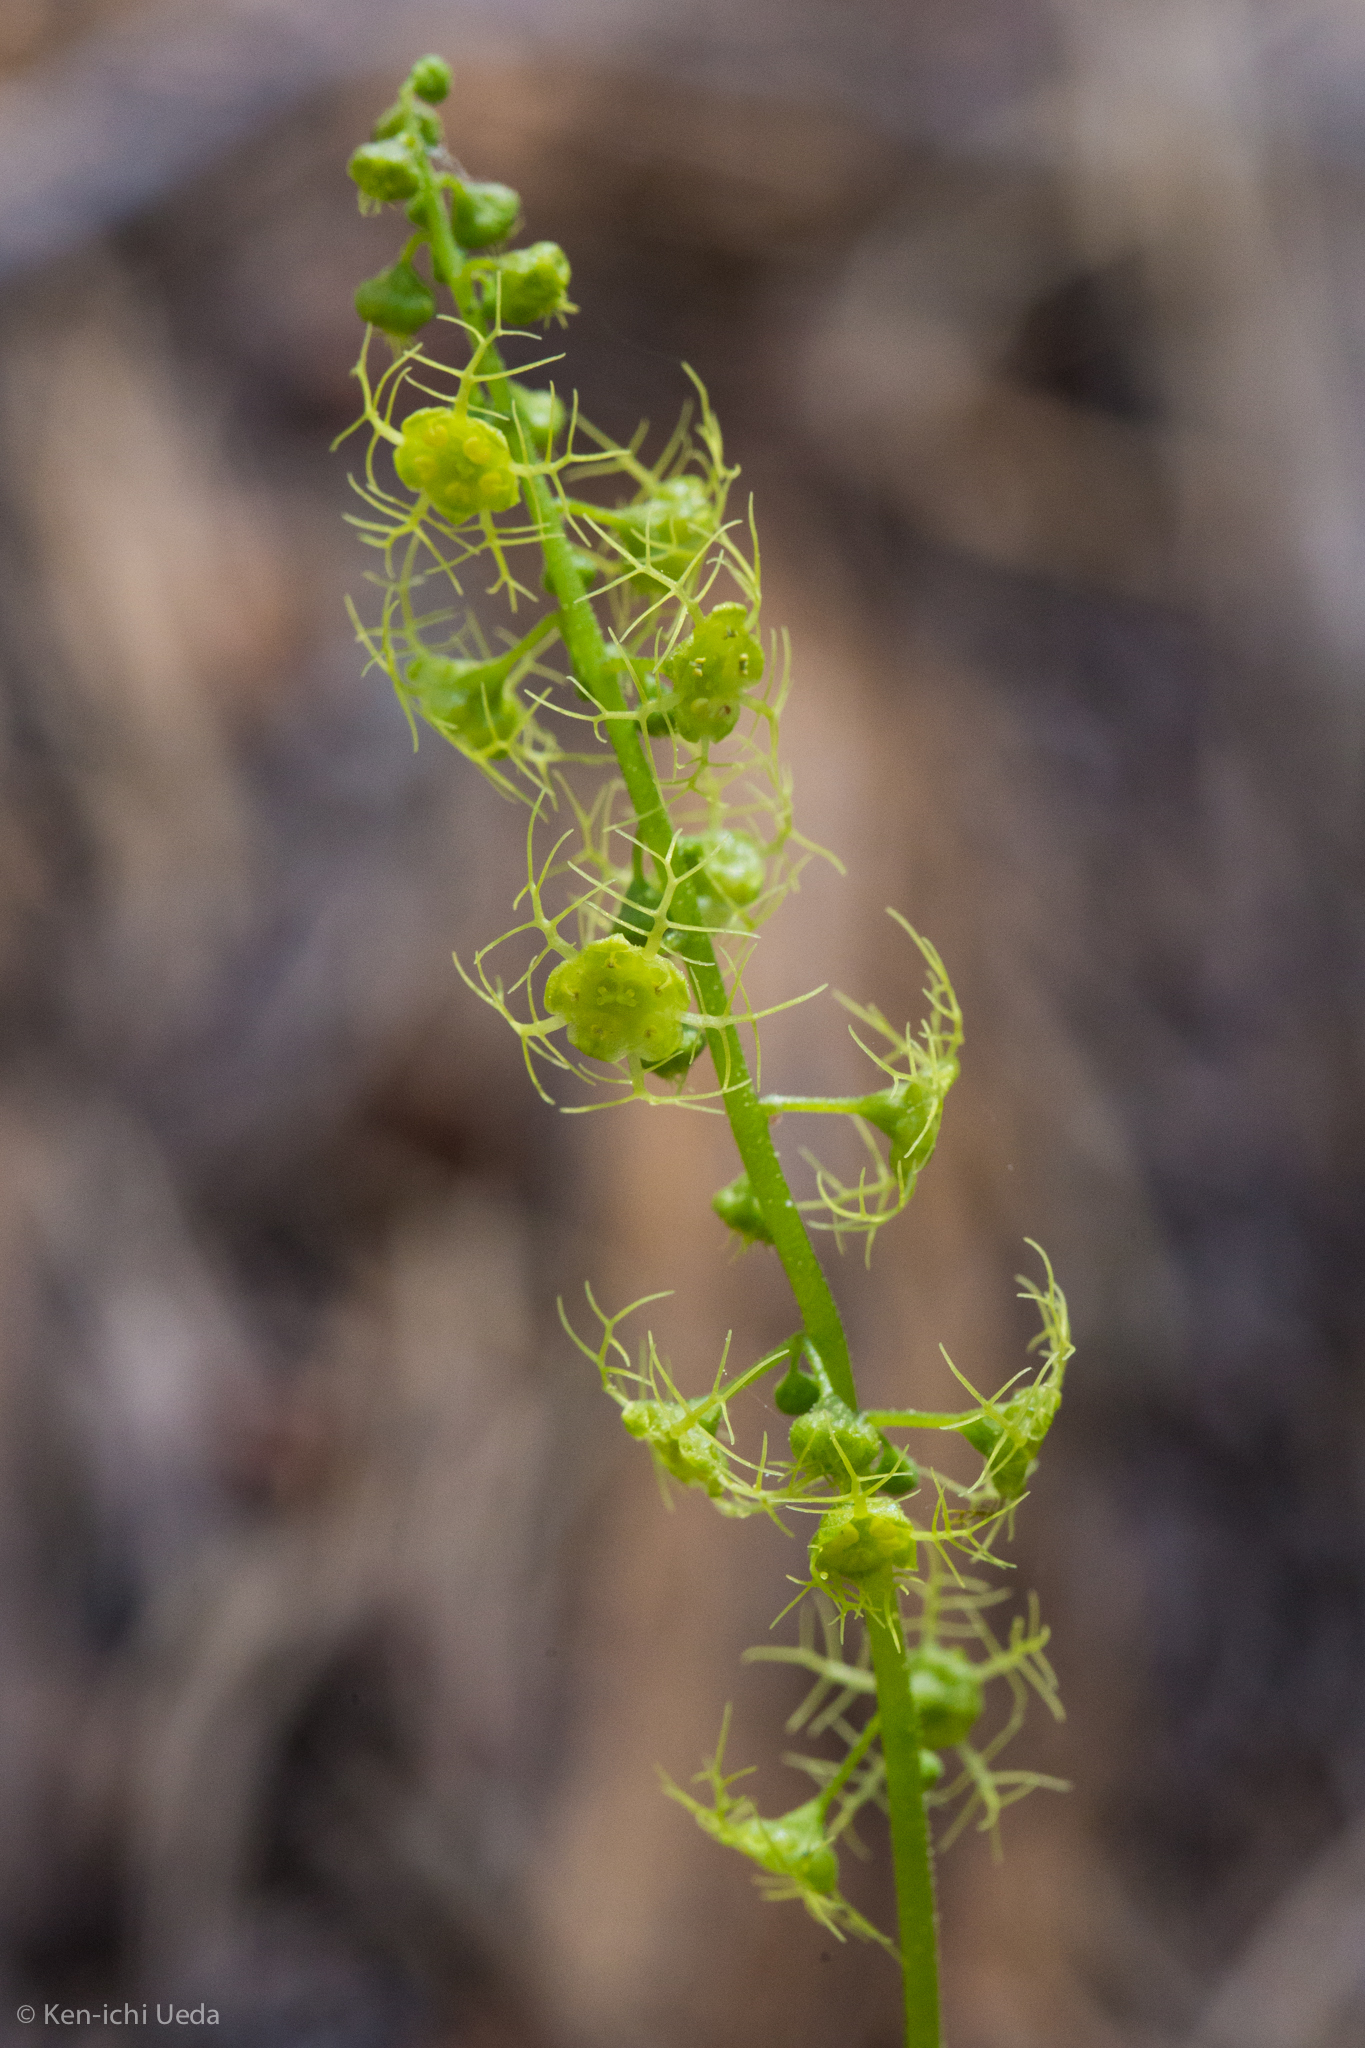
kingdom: Plantae
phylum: Tracheophyta
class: Magnoliopsida
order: Saxifragales
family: Saxifragaceae
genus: Brewerimitella
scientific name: Brewerimitella breweri
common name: Brewer's bishop's-cap
